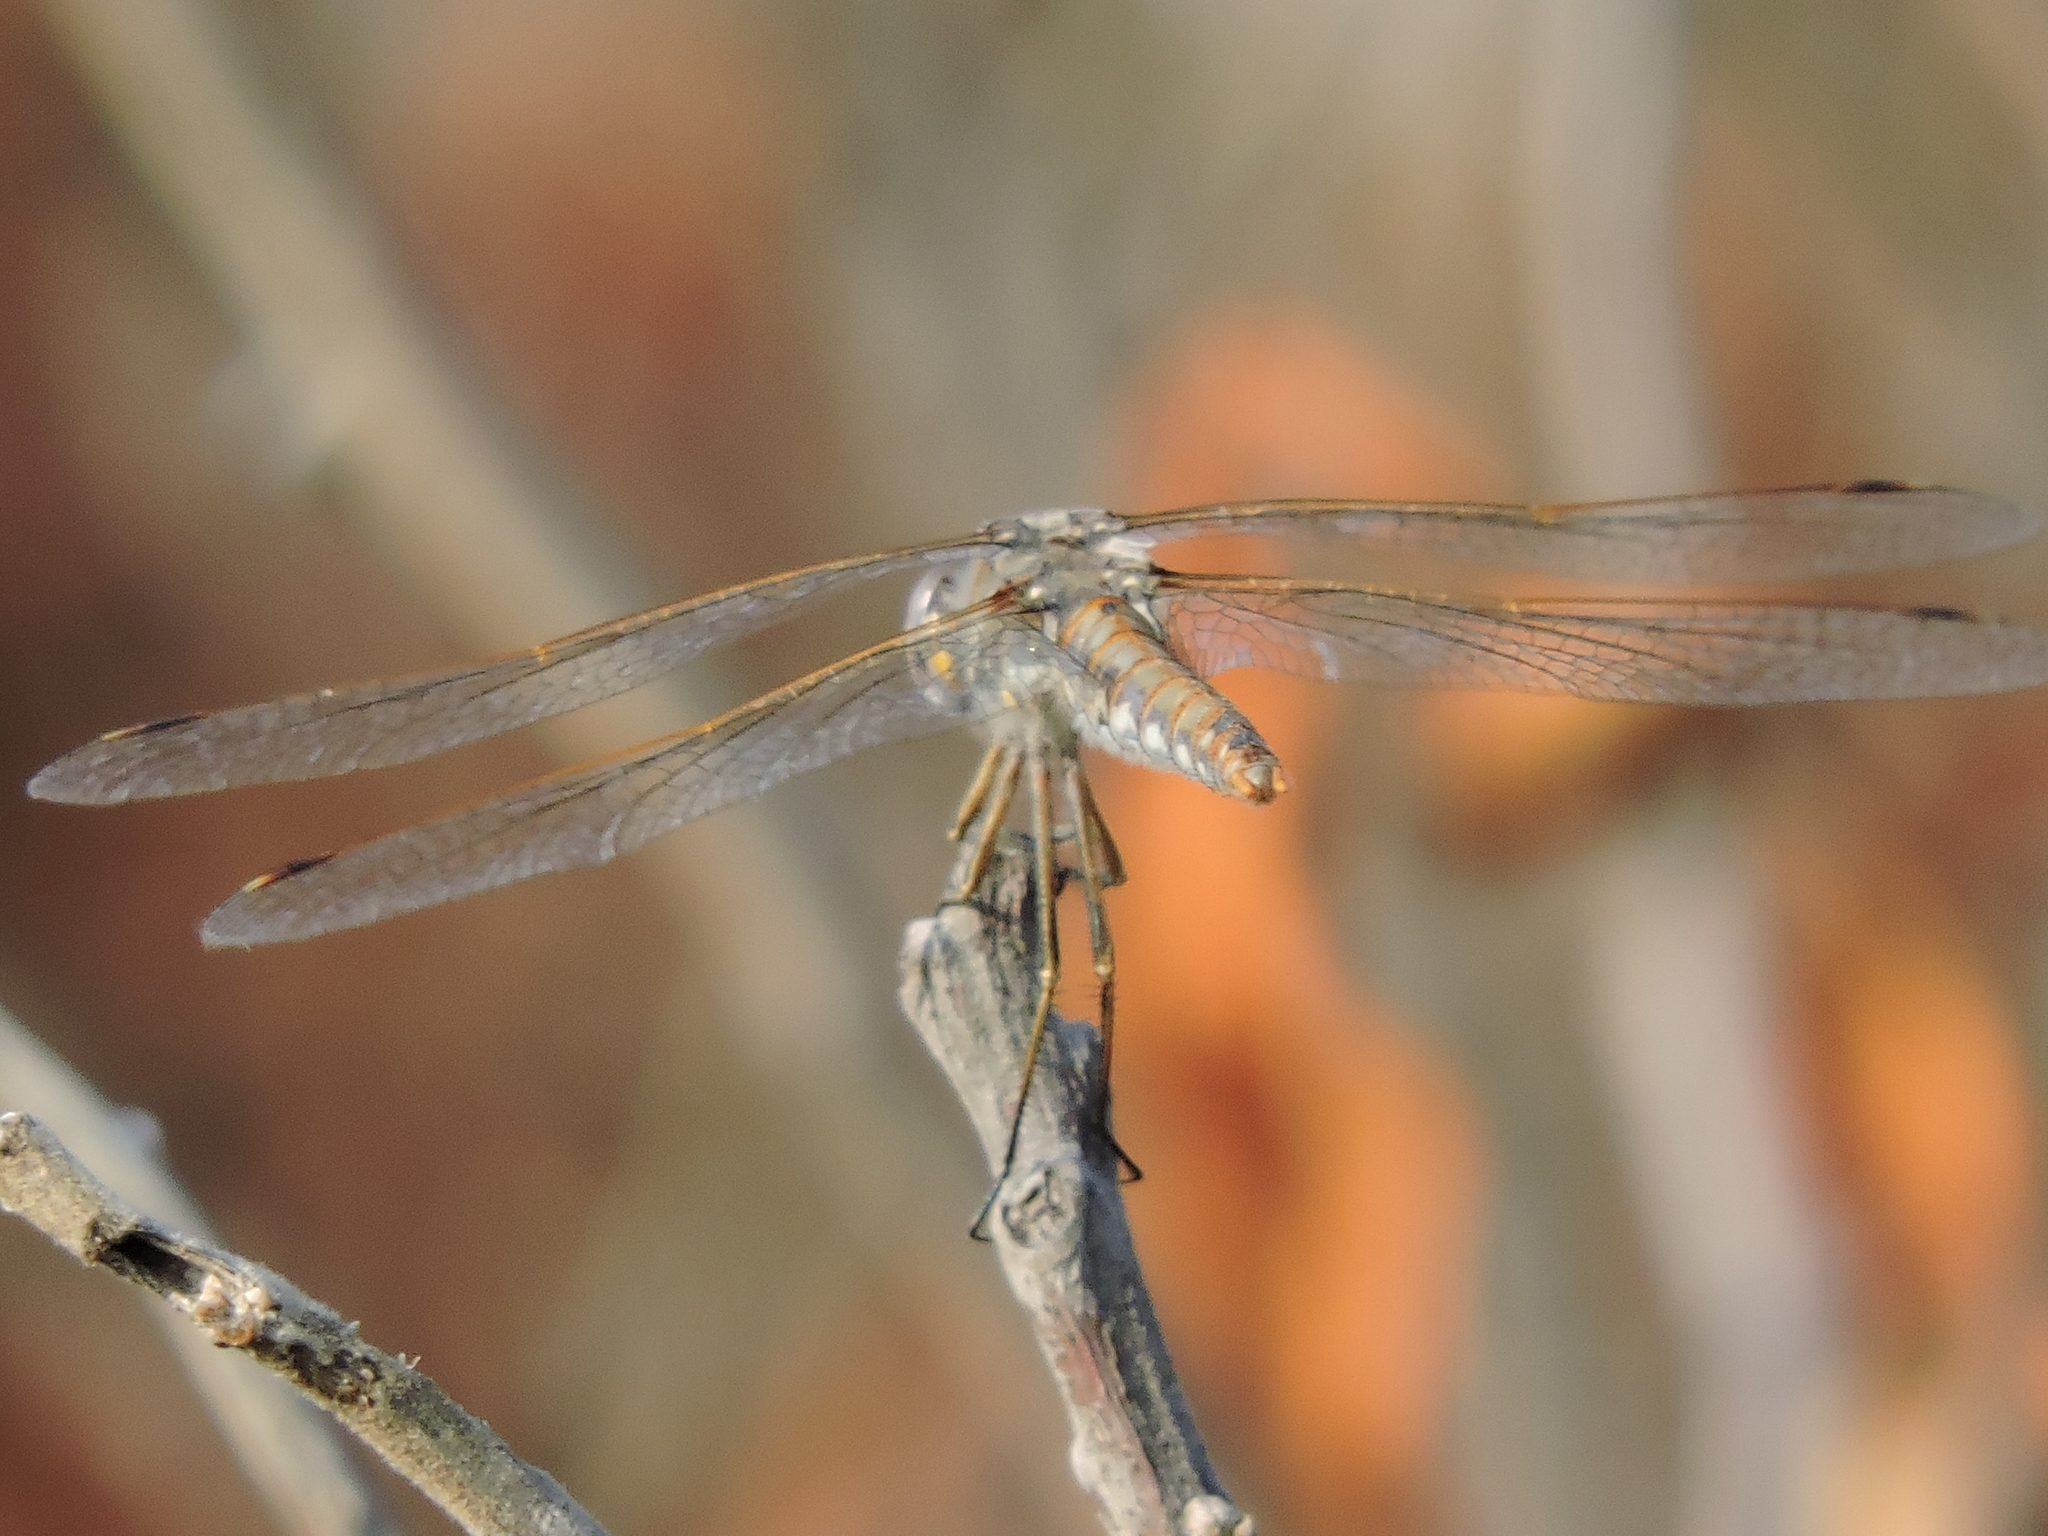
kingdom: Animalia
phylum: Arthropoda
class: Insecta
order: Odonata
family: Libellulidae
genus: Sympetrum
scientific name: Sympetrum corruptum
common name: Variegated meadowhawk
